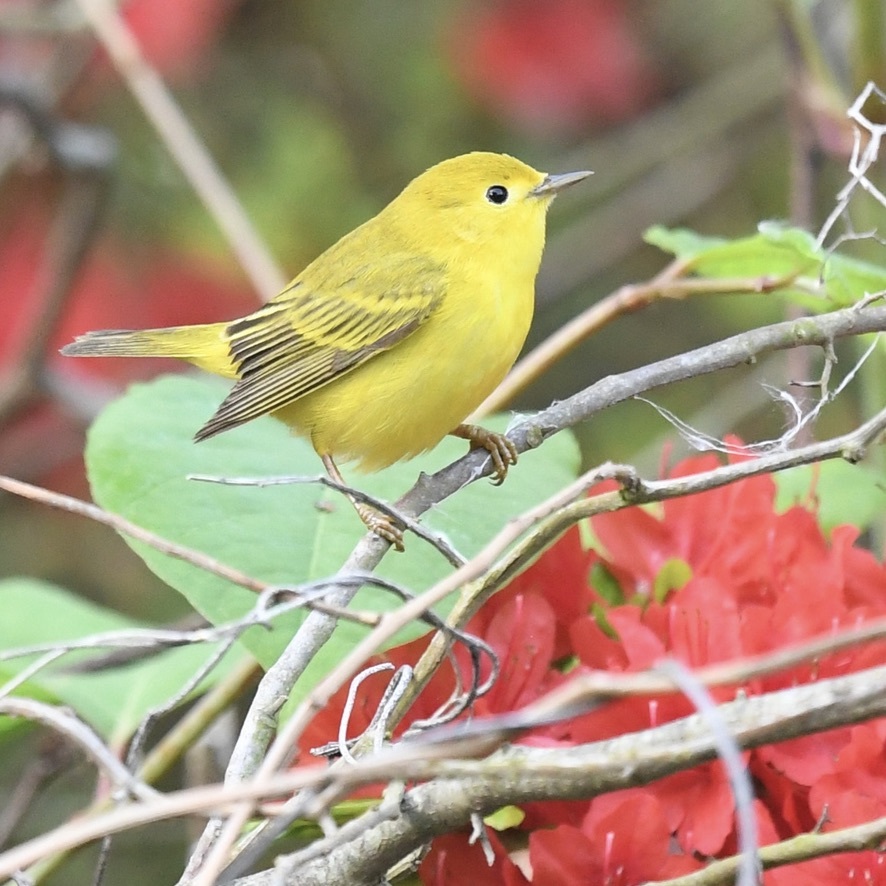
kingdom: Animalia
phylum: Chordata
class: Aves
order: Passeriformes
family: Parulidae
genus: Setophaga
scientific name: Setophaga petechia
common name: Yellow warbler
